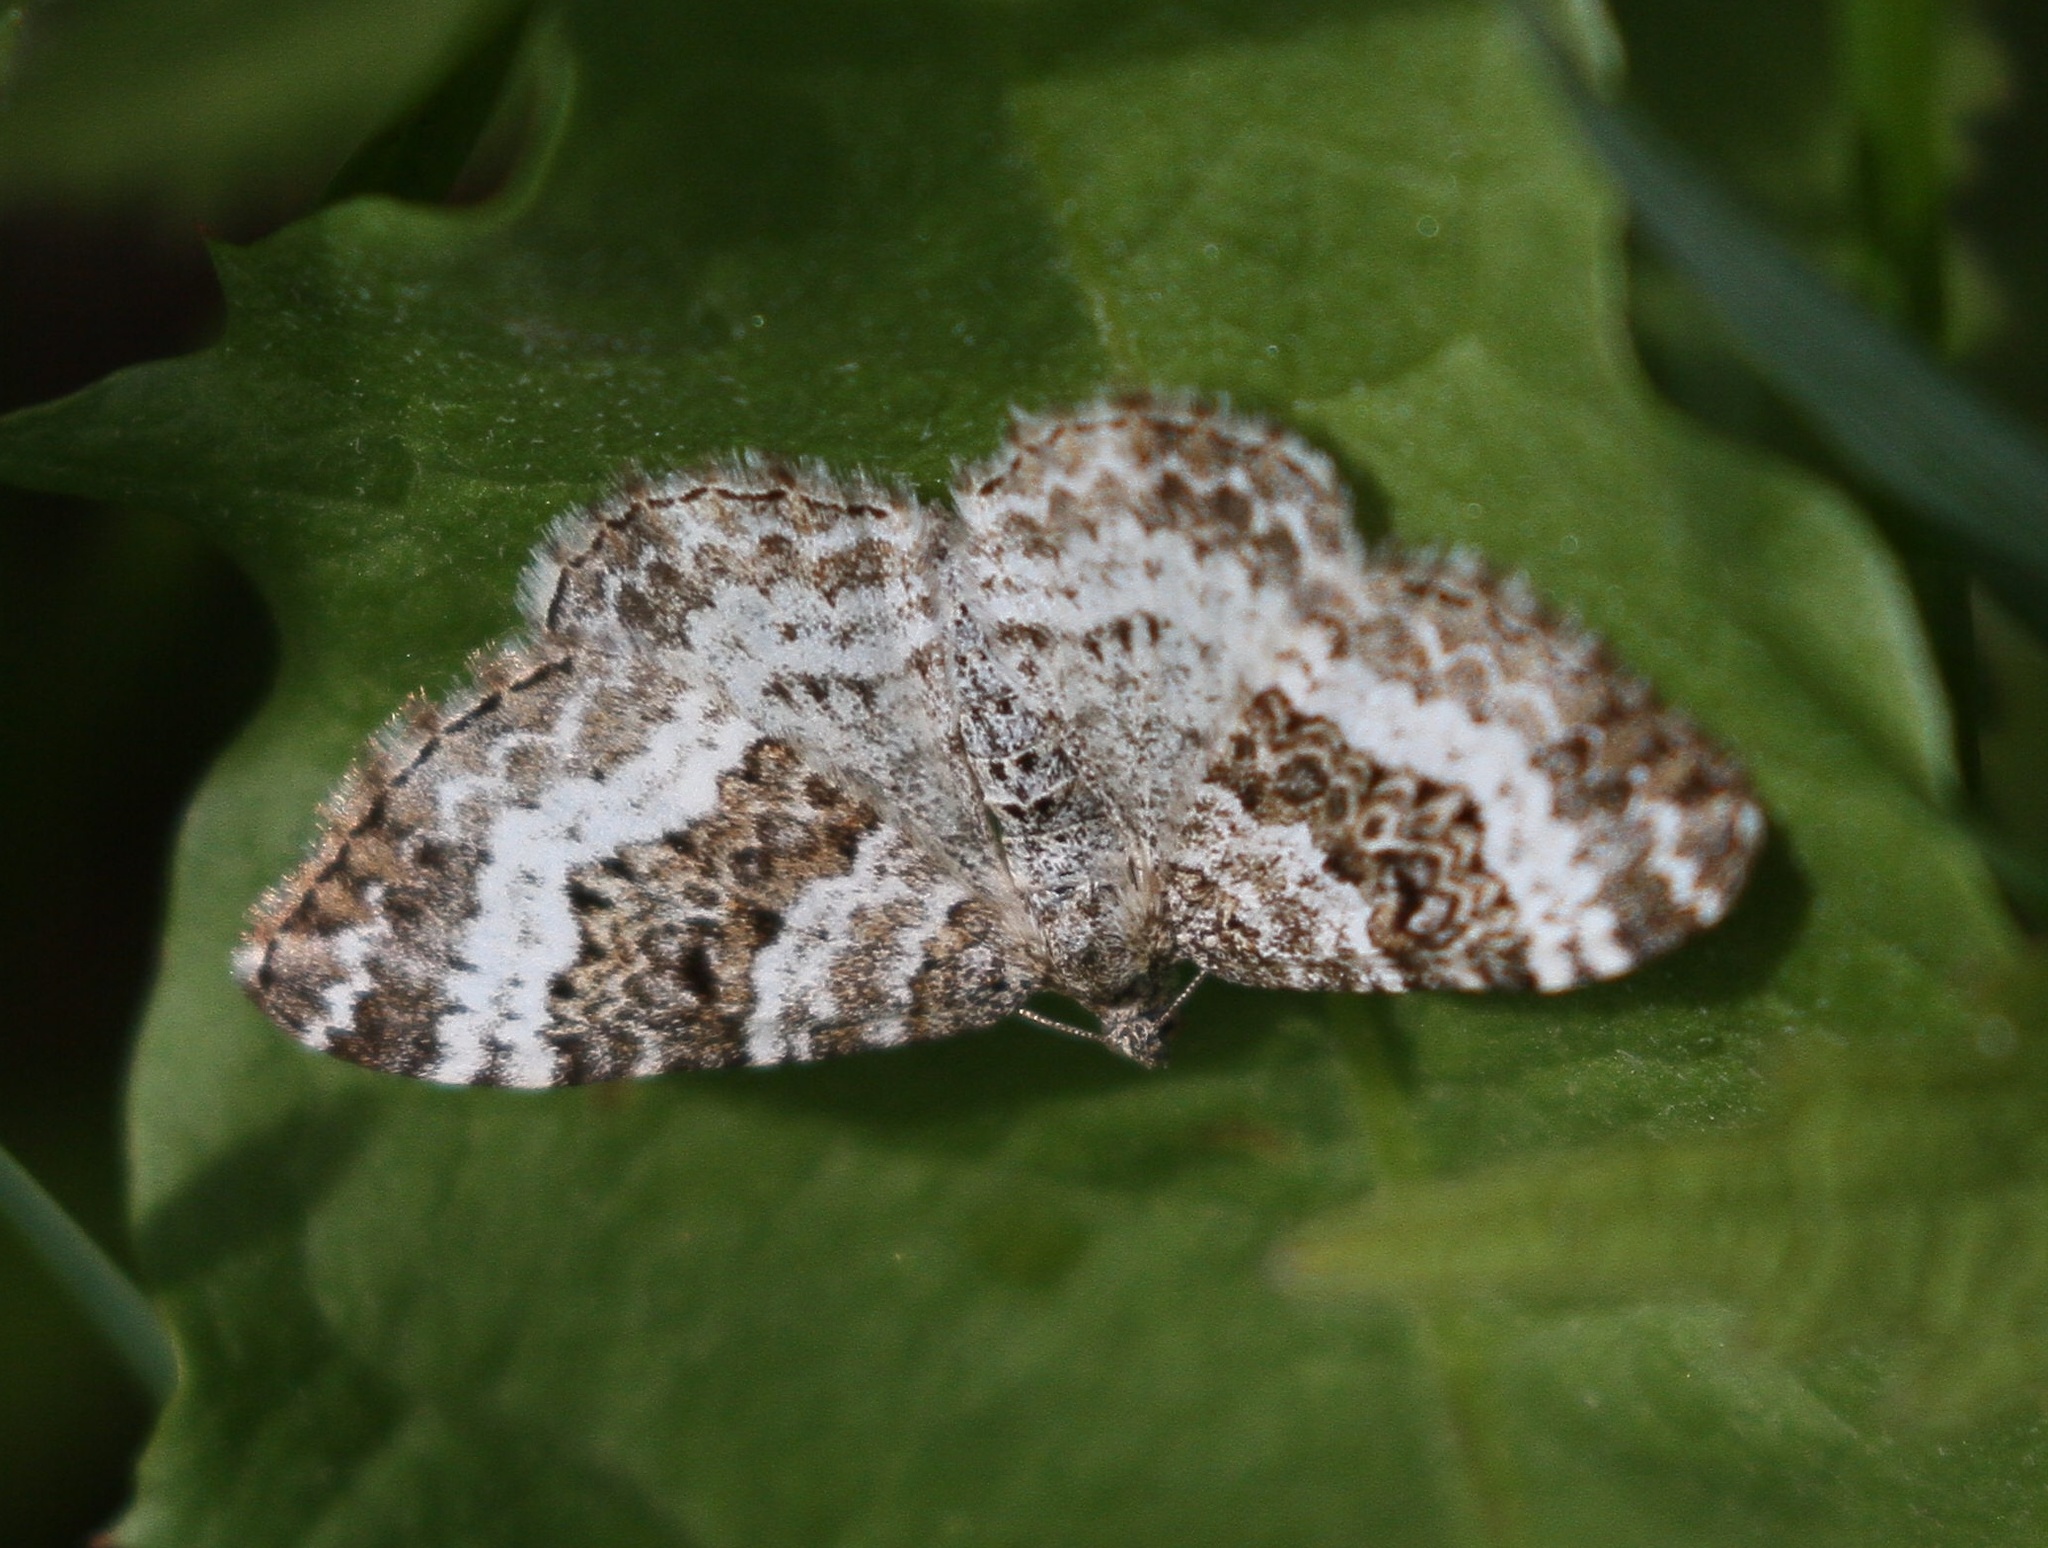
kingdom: Animalia
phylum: Arthropoda
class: Insecta
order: Lepidoptera
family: Geometridae
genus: Epirrhoe
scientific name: Epirrhoe alternata
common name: Common carpet
